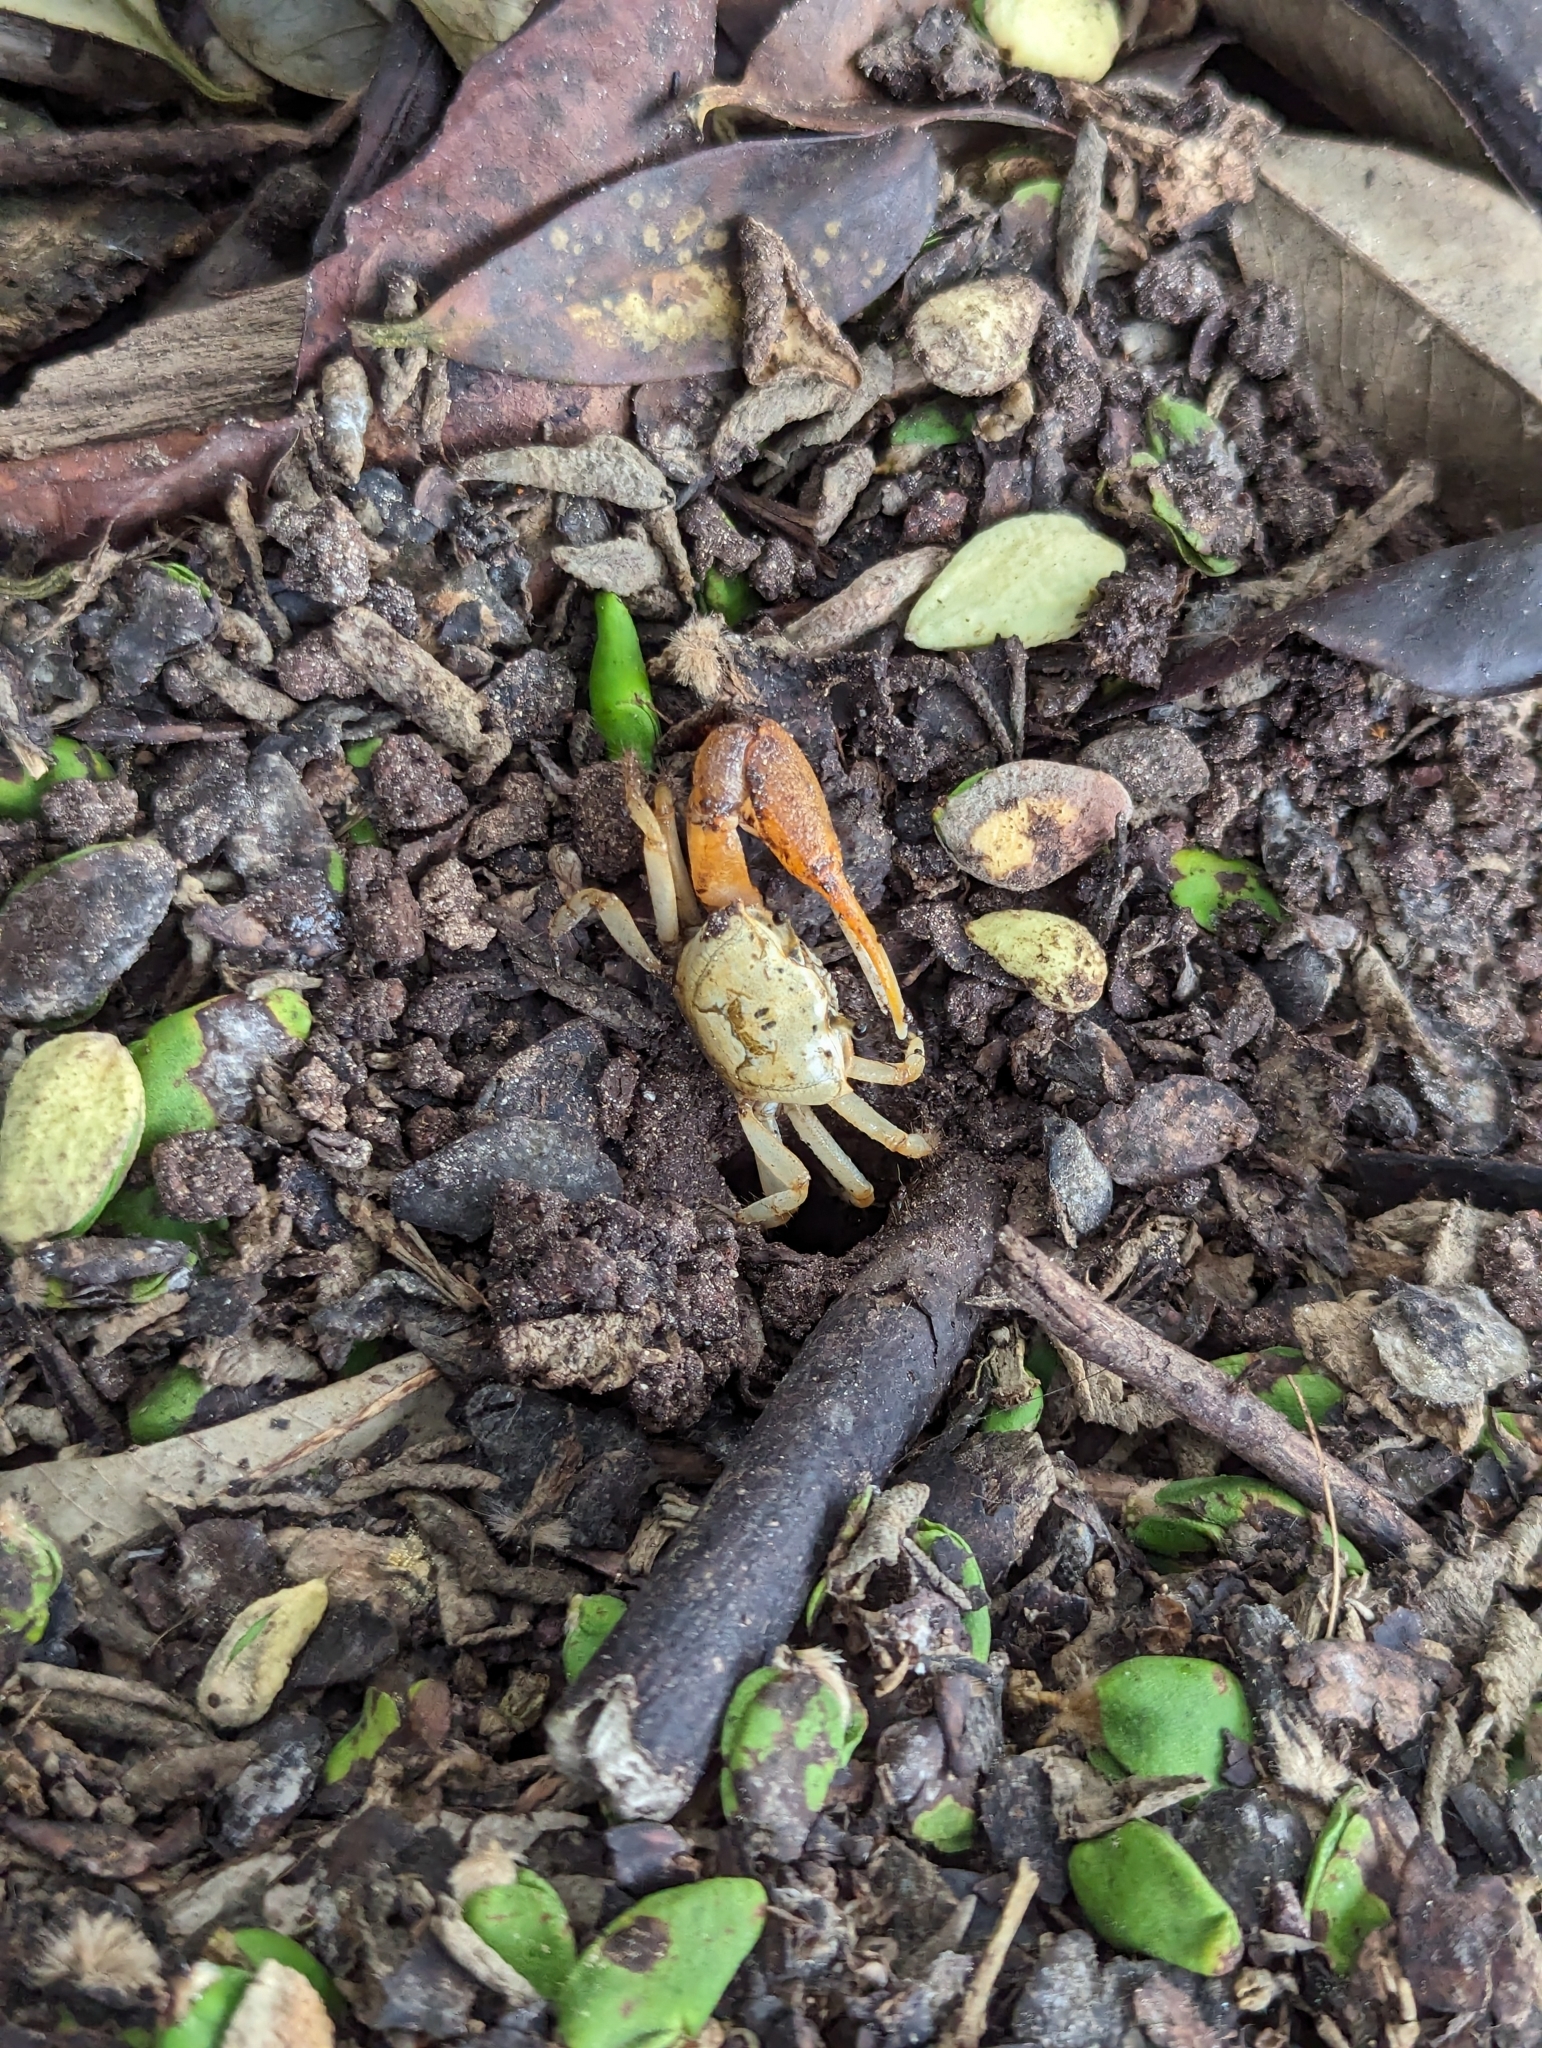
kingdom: Animalia
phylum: Arthropoda
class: Malacostraca
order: Decapoda
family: Ocypodidae
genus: Minuca
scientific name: Minuca galapagensis
